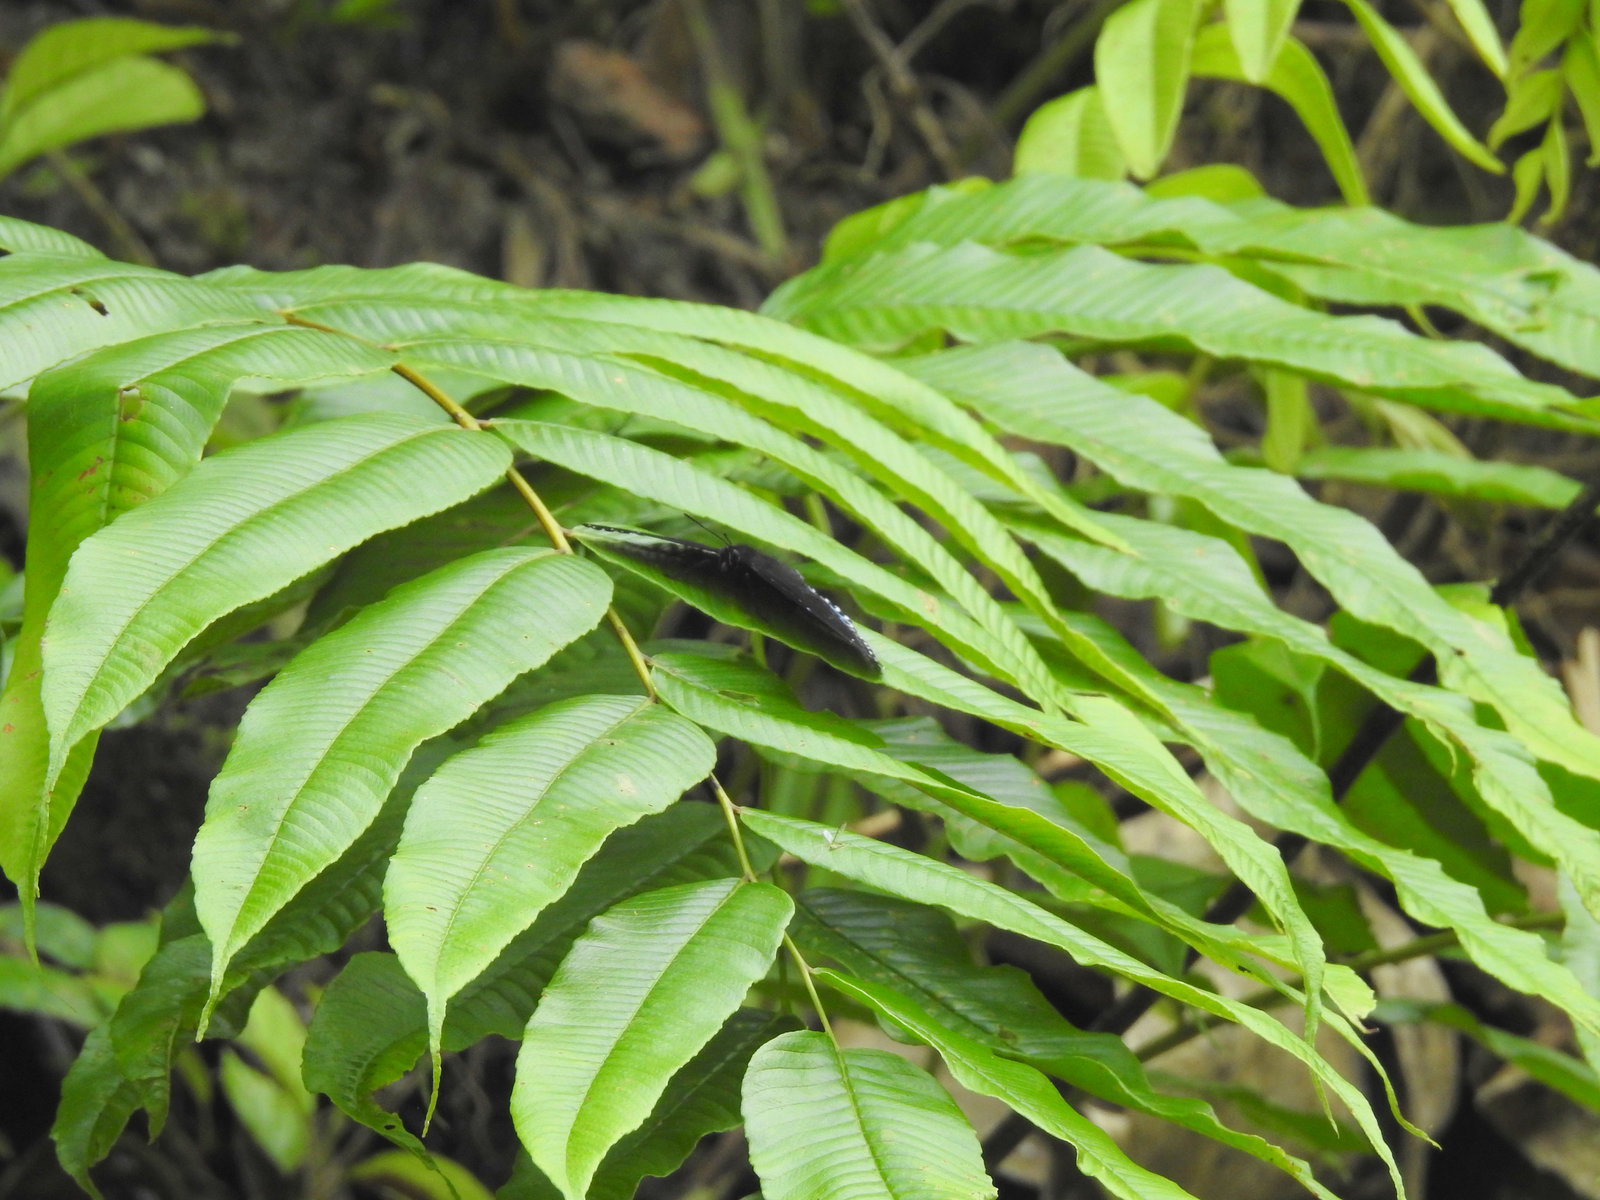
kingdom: Animalia
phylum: Arthropoda
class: Insecta
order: Lepidoptera
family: Nymphalidae
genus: Stibochiona
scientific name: Stibochiona nicea
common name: Popinjay
